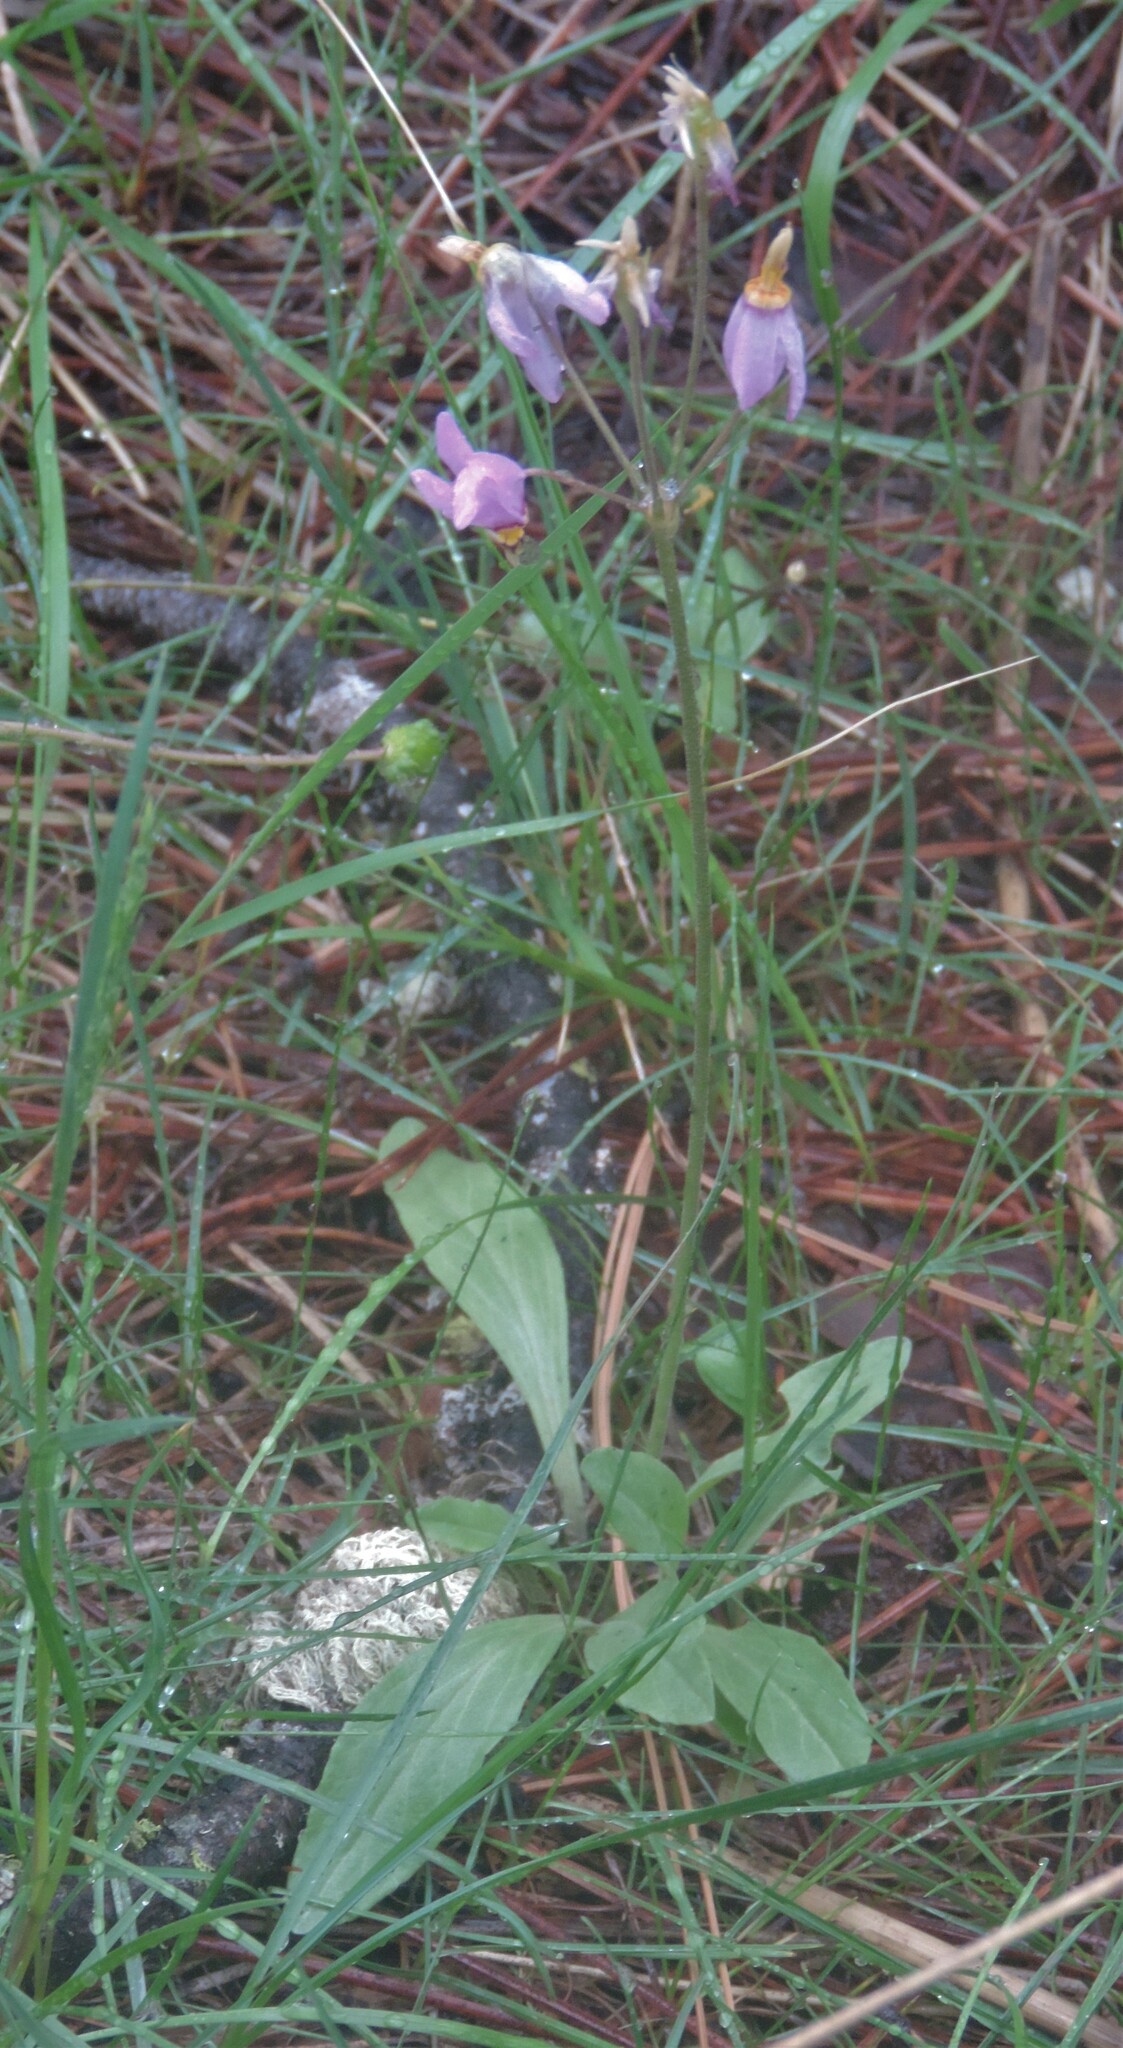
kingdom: Plantae
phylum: Tracheophyta
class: Magnoliopsida
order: Ericales
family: Primulaceae
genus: Dodecatheon
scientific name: Dodecatheon pulchellum
